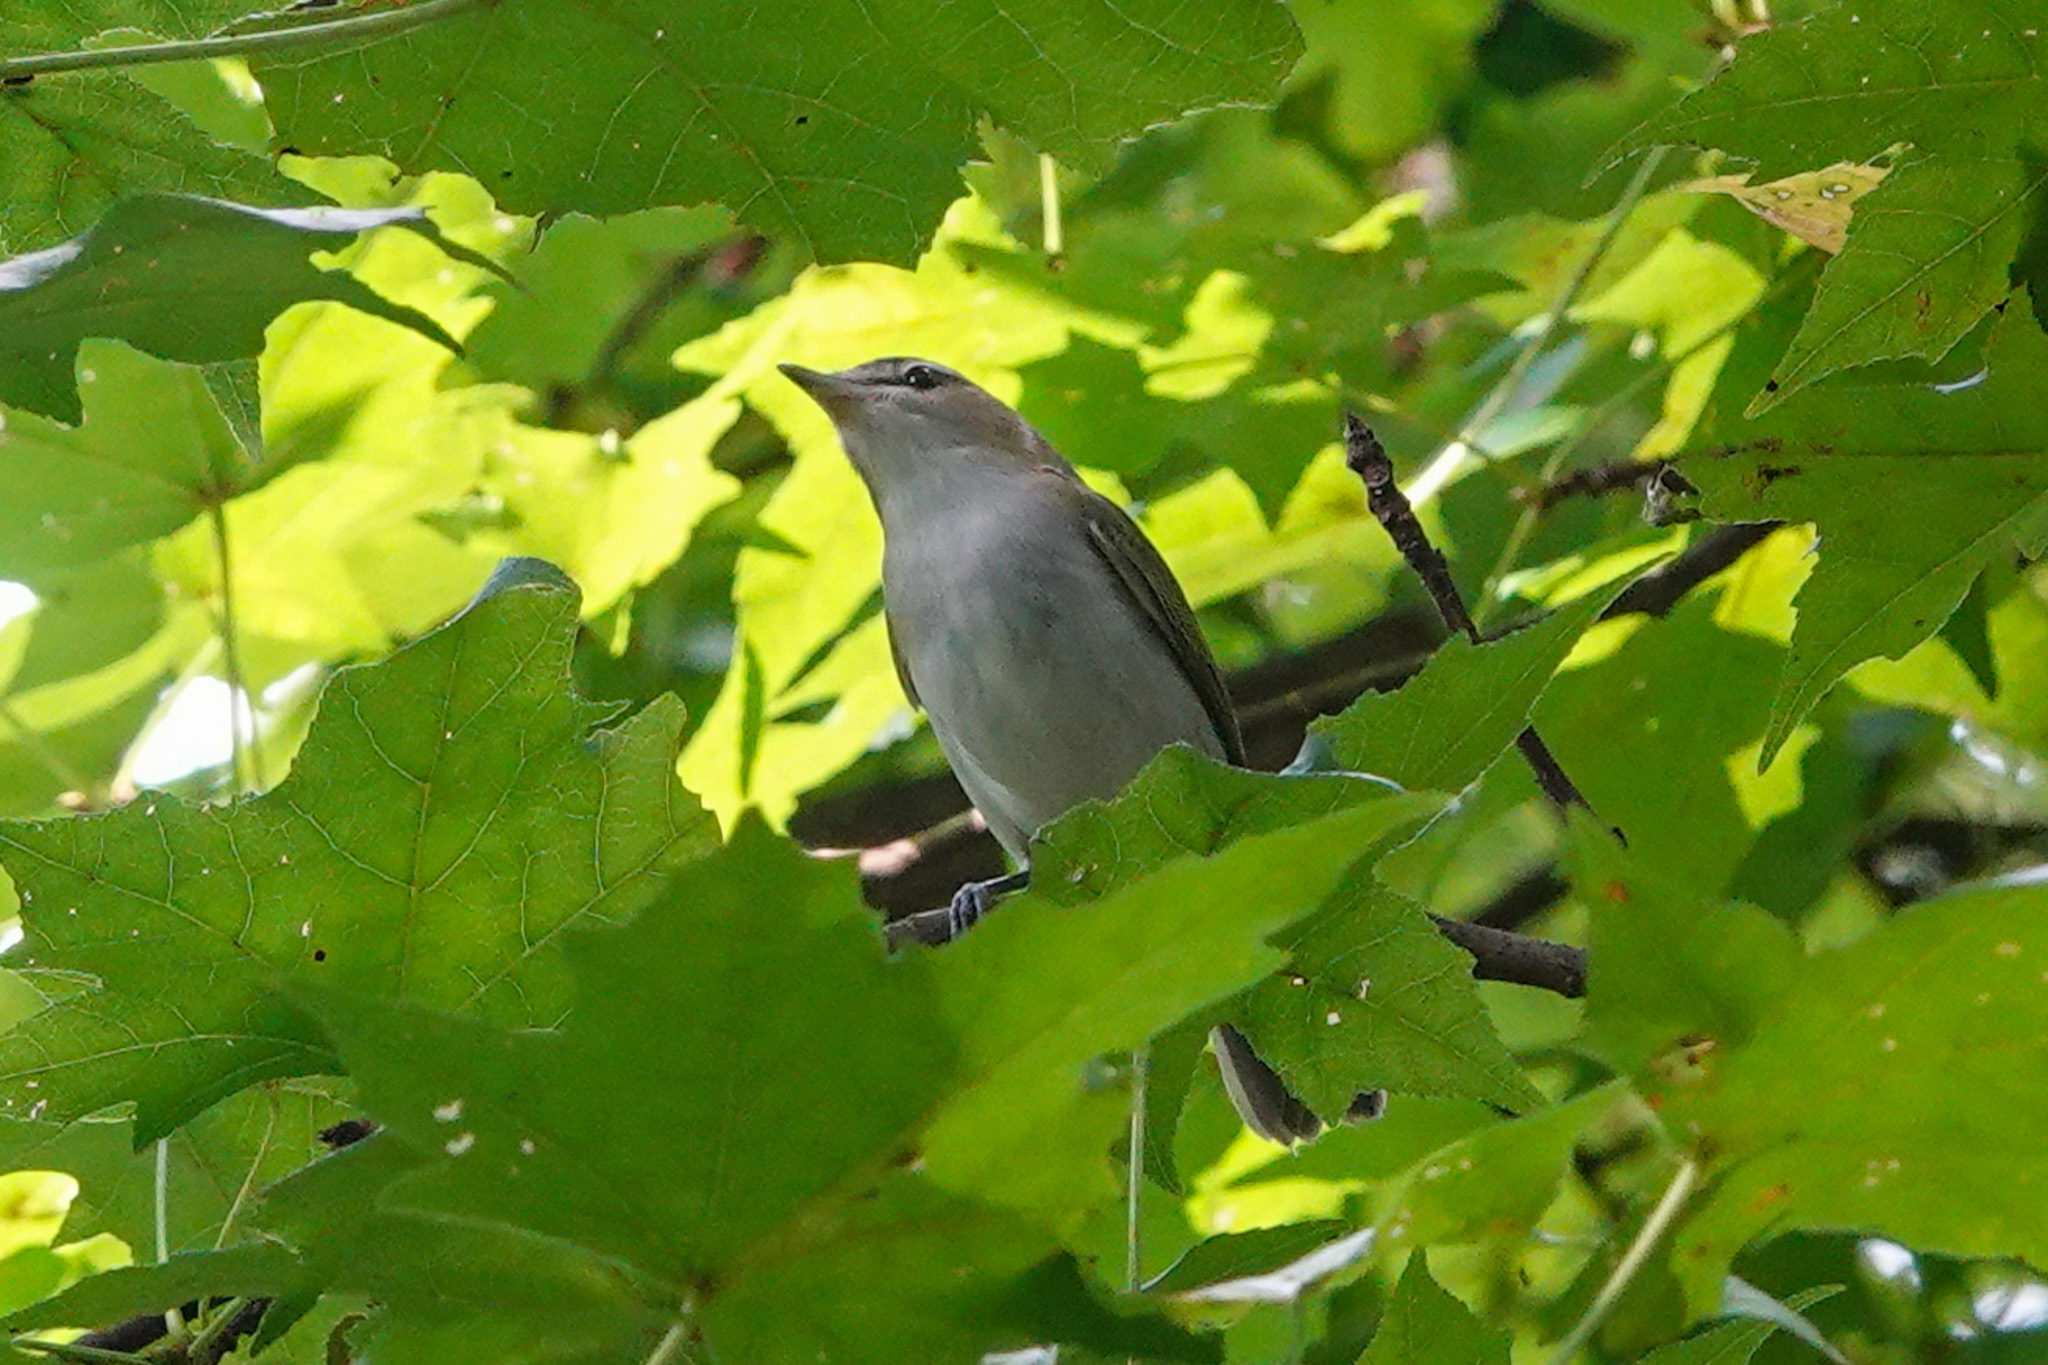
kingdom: Animalia
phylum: Chordata
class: Aves
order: Passeriformes
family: Vireonidae
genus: Vireo
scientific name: Vireo olivaceus
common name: Red-eyed vireo
